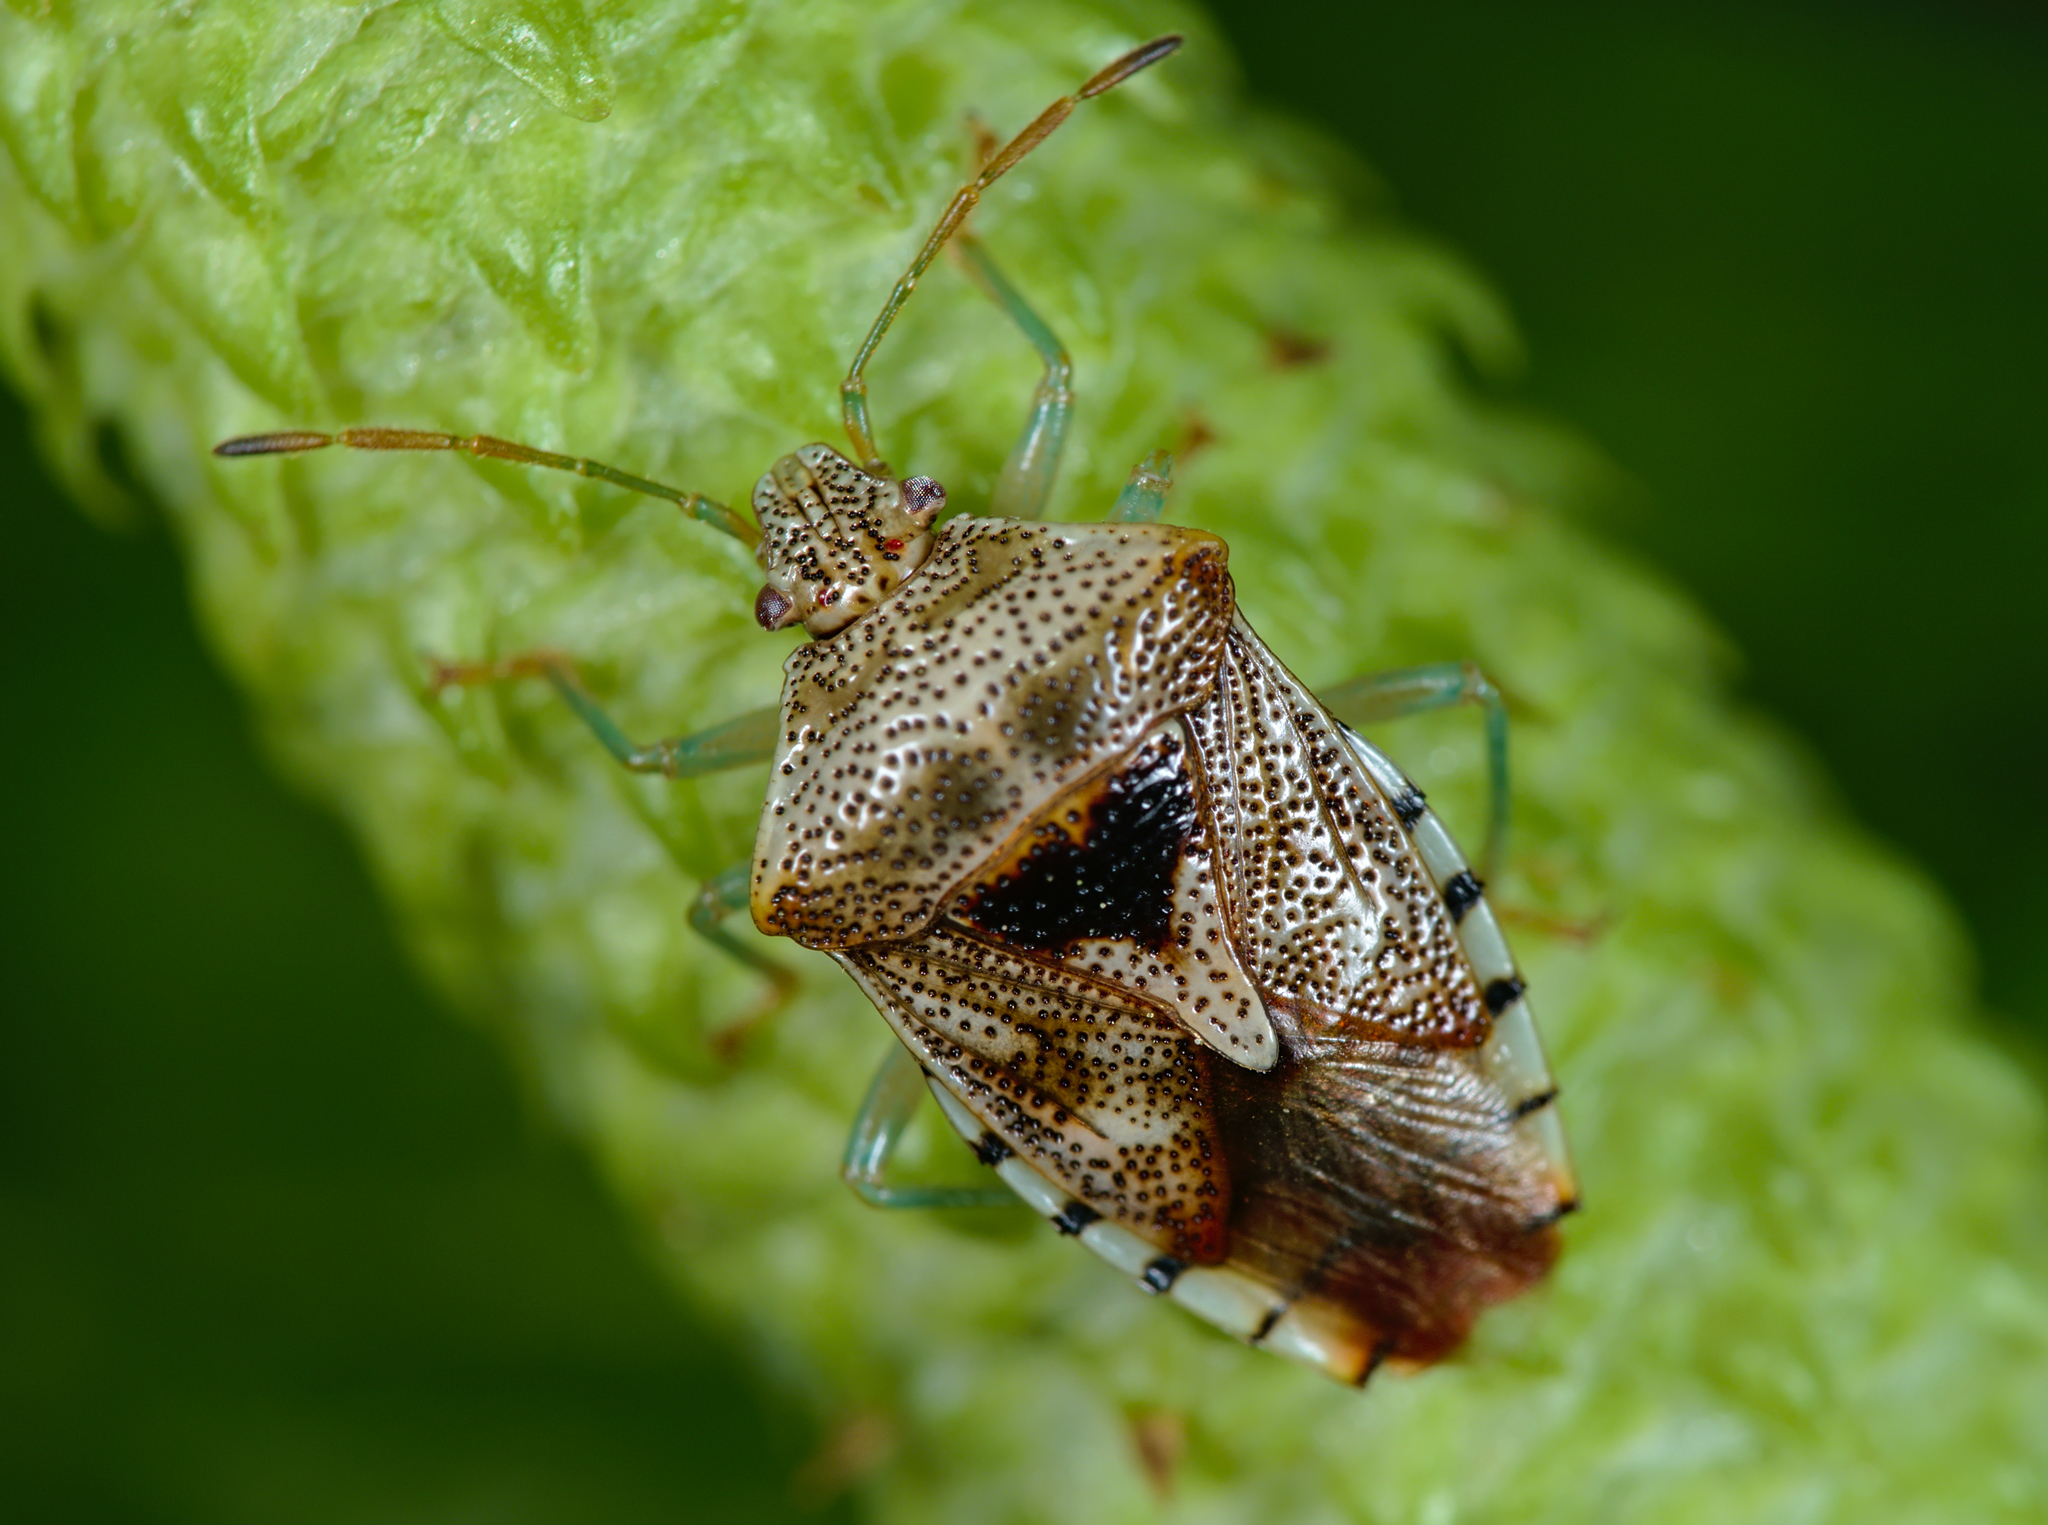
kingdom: Animalia
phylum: Arthropoda
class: Insecta
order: Hemiptera
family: Acanthosomatidae
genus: Elasmucha
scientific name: Elasmucha grisea
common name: Parent bug
